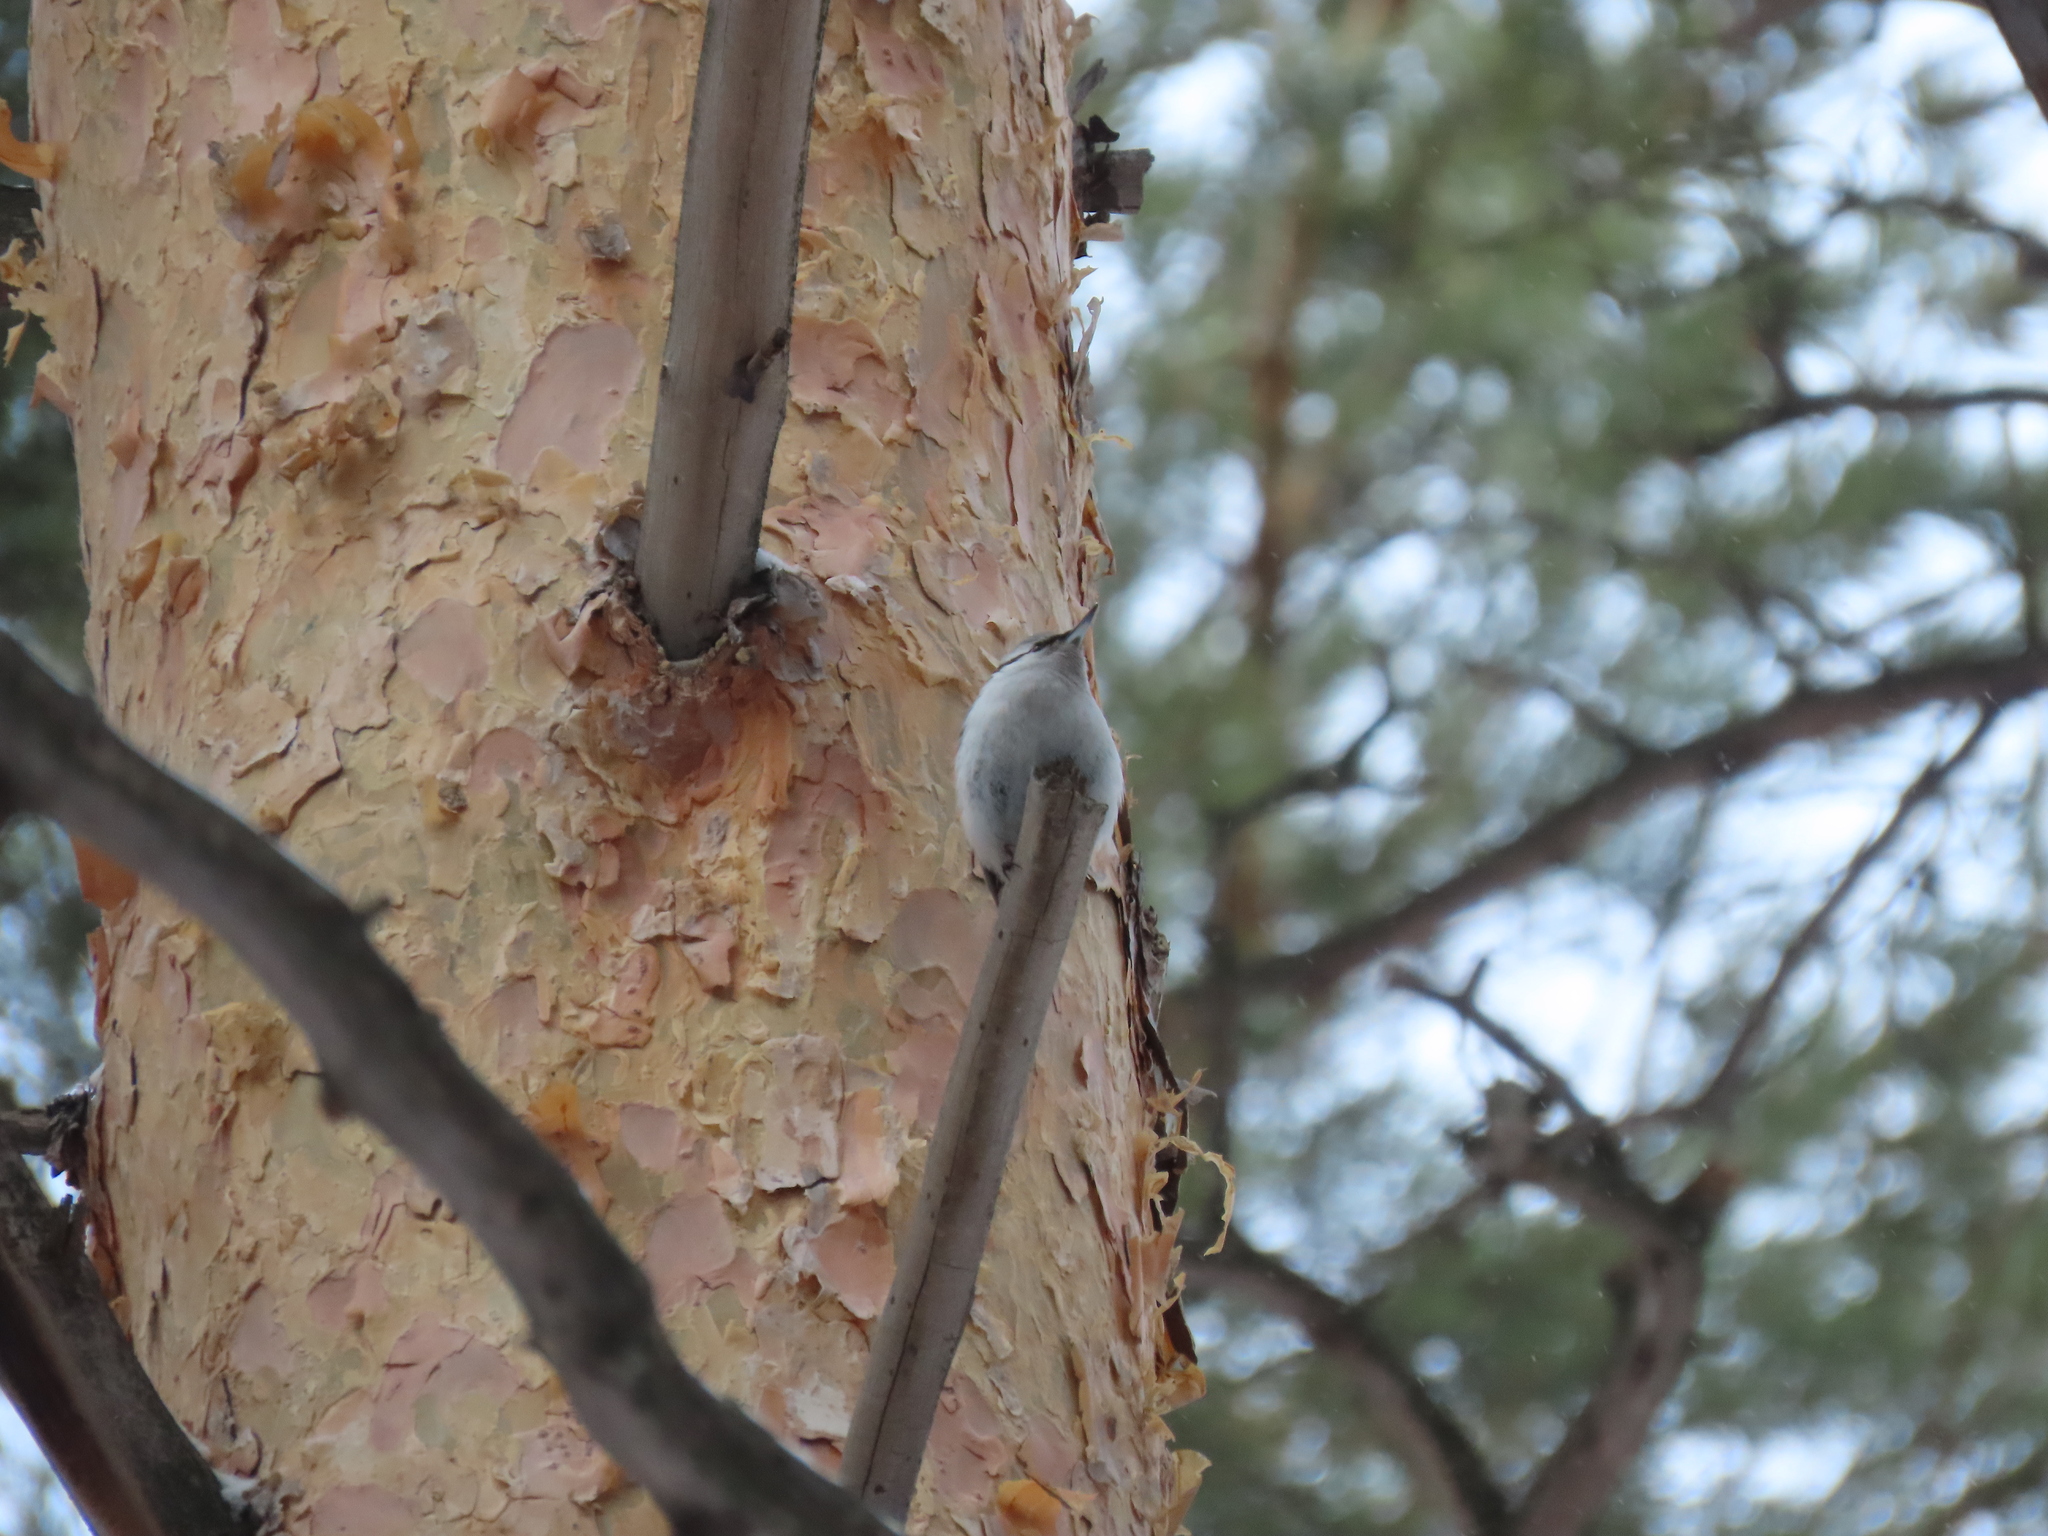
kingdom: Animalia
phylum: Chordata
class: Aves
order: Passeriformes
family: Sittidae
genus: Sitta
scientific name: Sitta europaea
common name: Eurasian nuthatch
